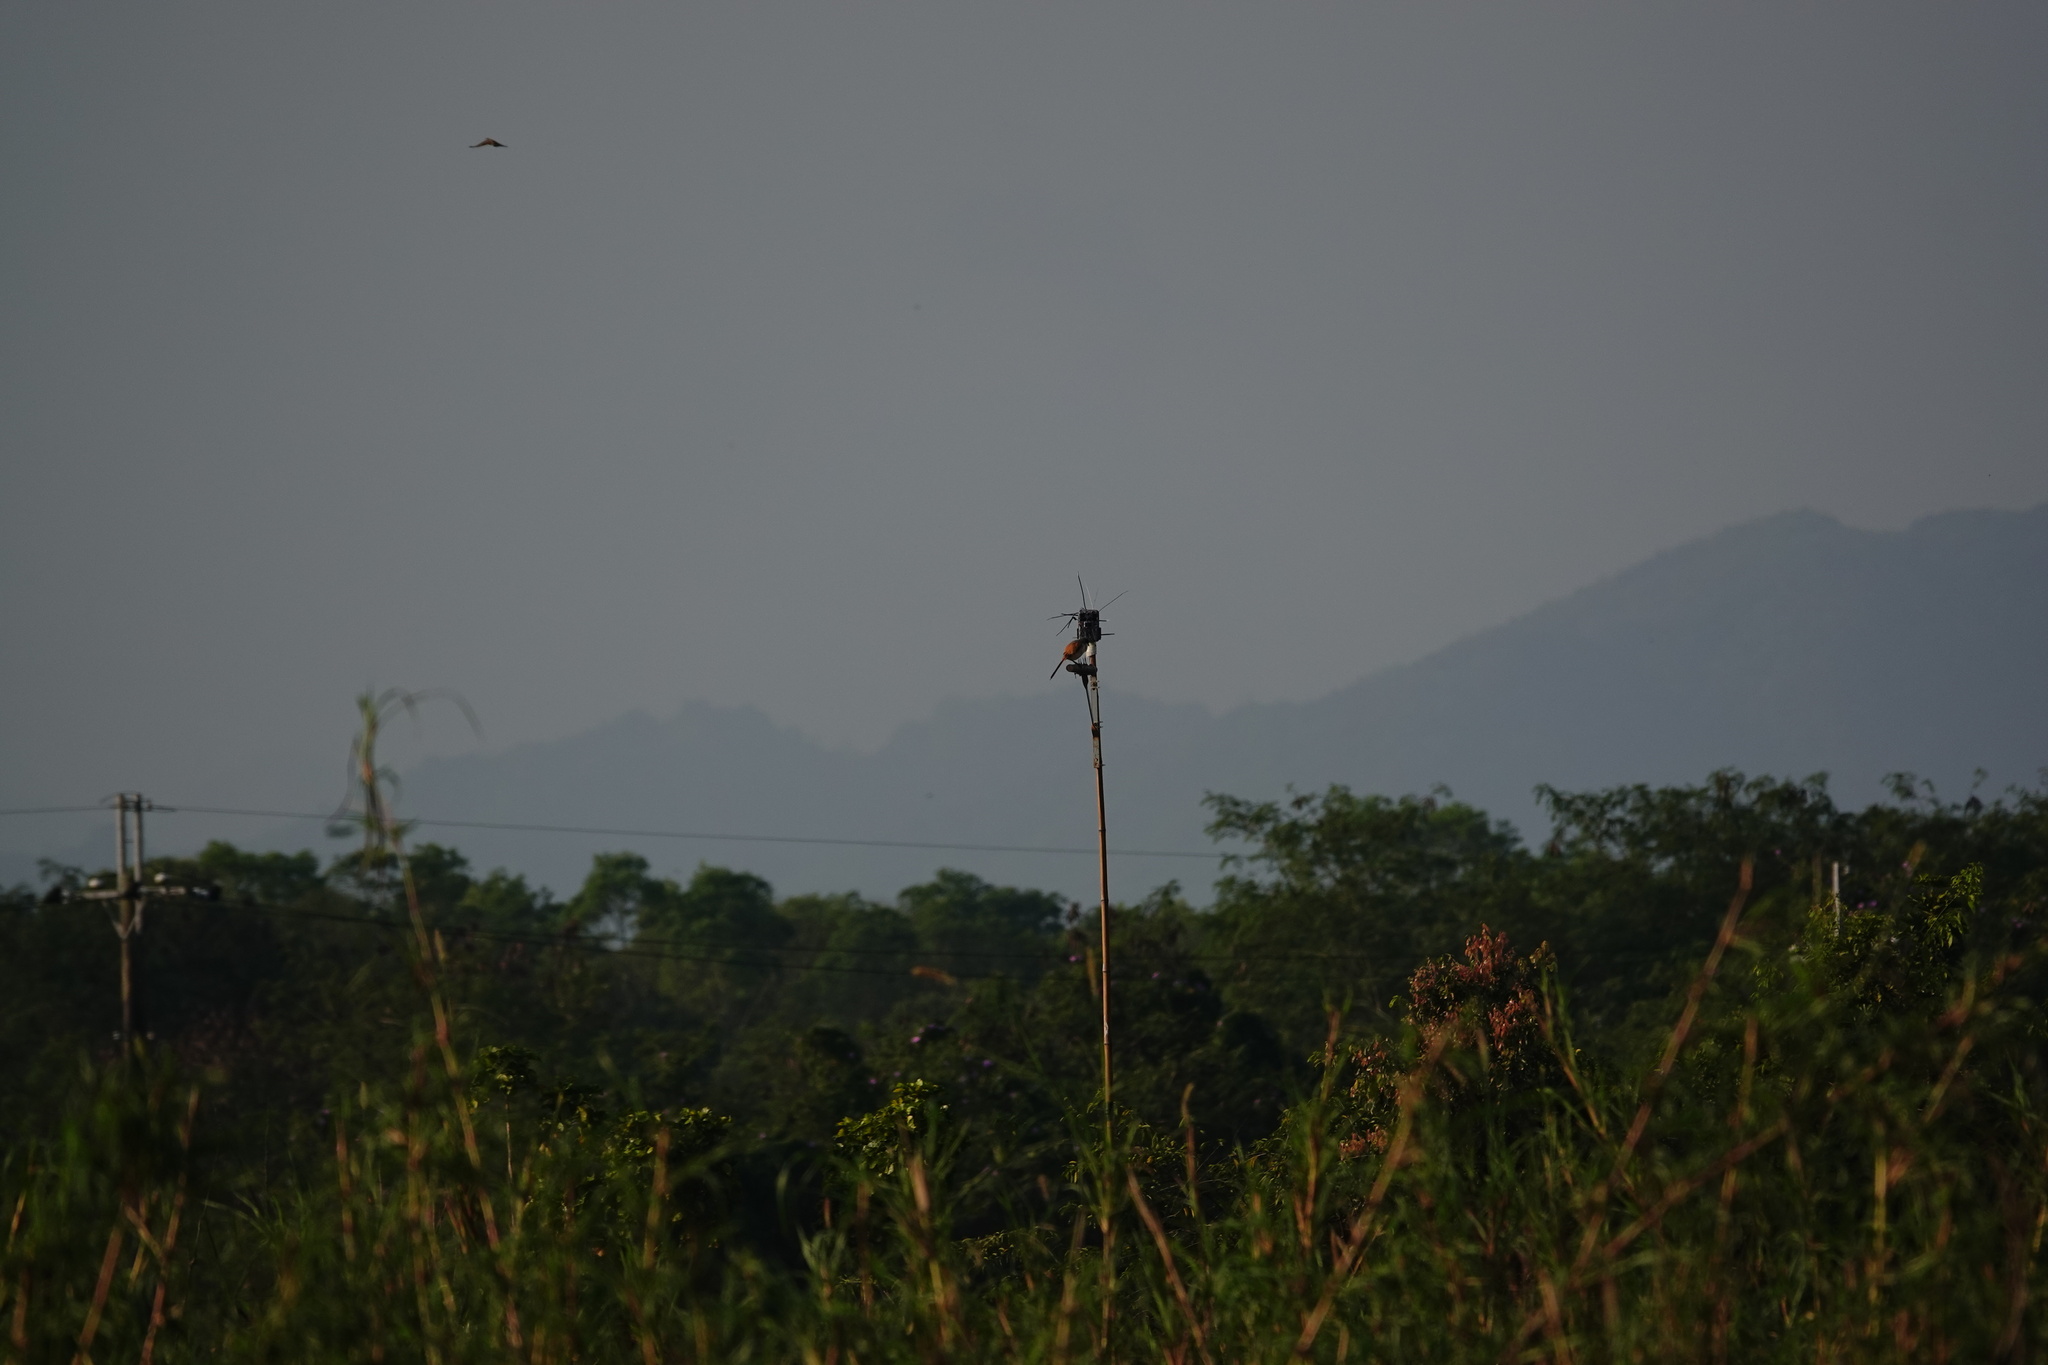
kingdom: Animalia
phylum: Chordata
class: Aves
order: Passeriformes
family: Laniidae
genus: Lanius
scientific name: Lanius schach
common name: Long-tailed shrike
